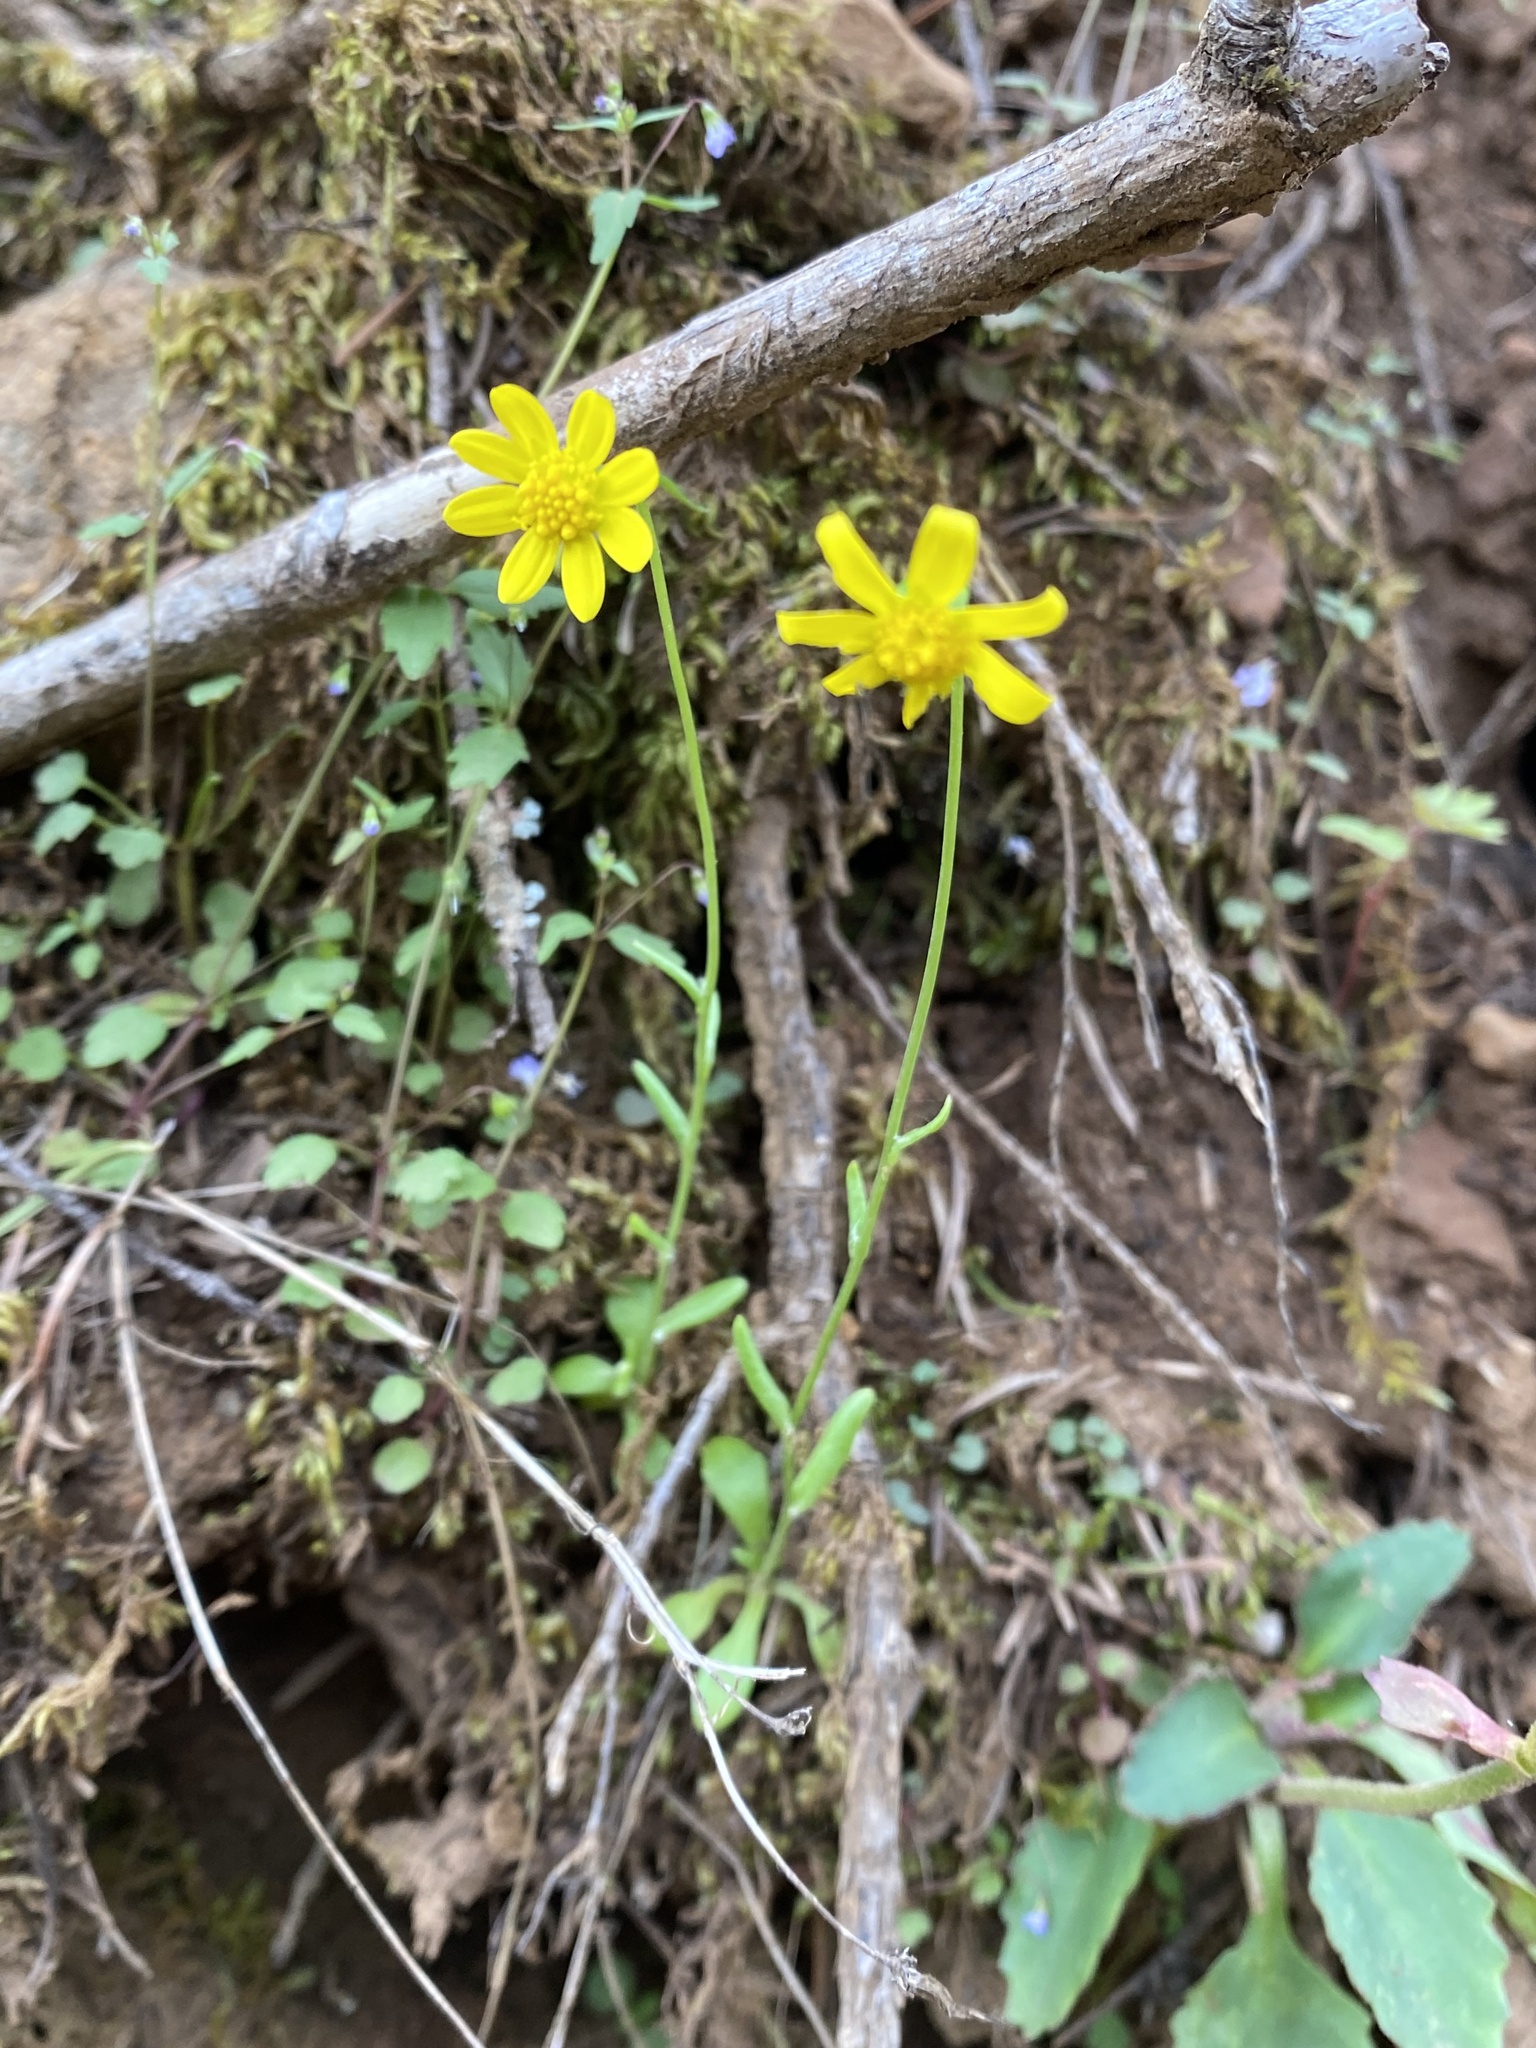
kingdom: Plantae
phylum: Tracheophyta
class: Magnoliopsida
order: Asterales
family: Asteraceae
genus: Crocidium
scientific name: Crocidium multicaule
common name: Common spring gold
